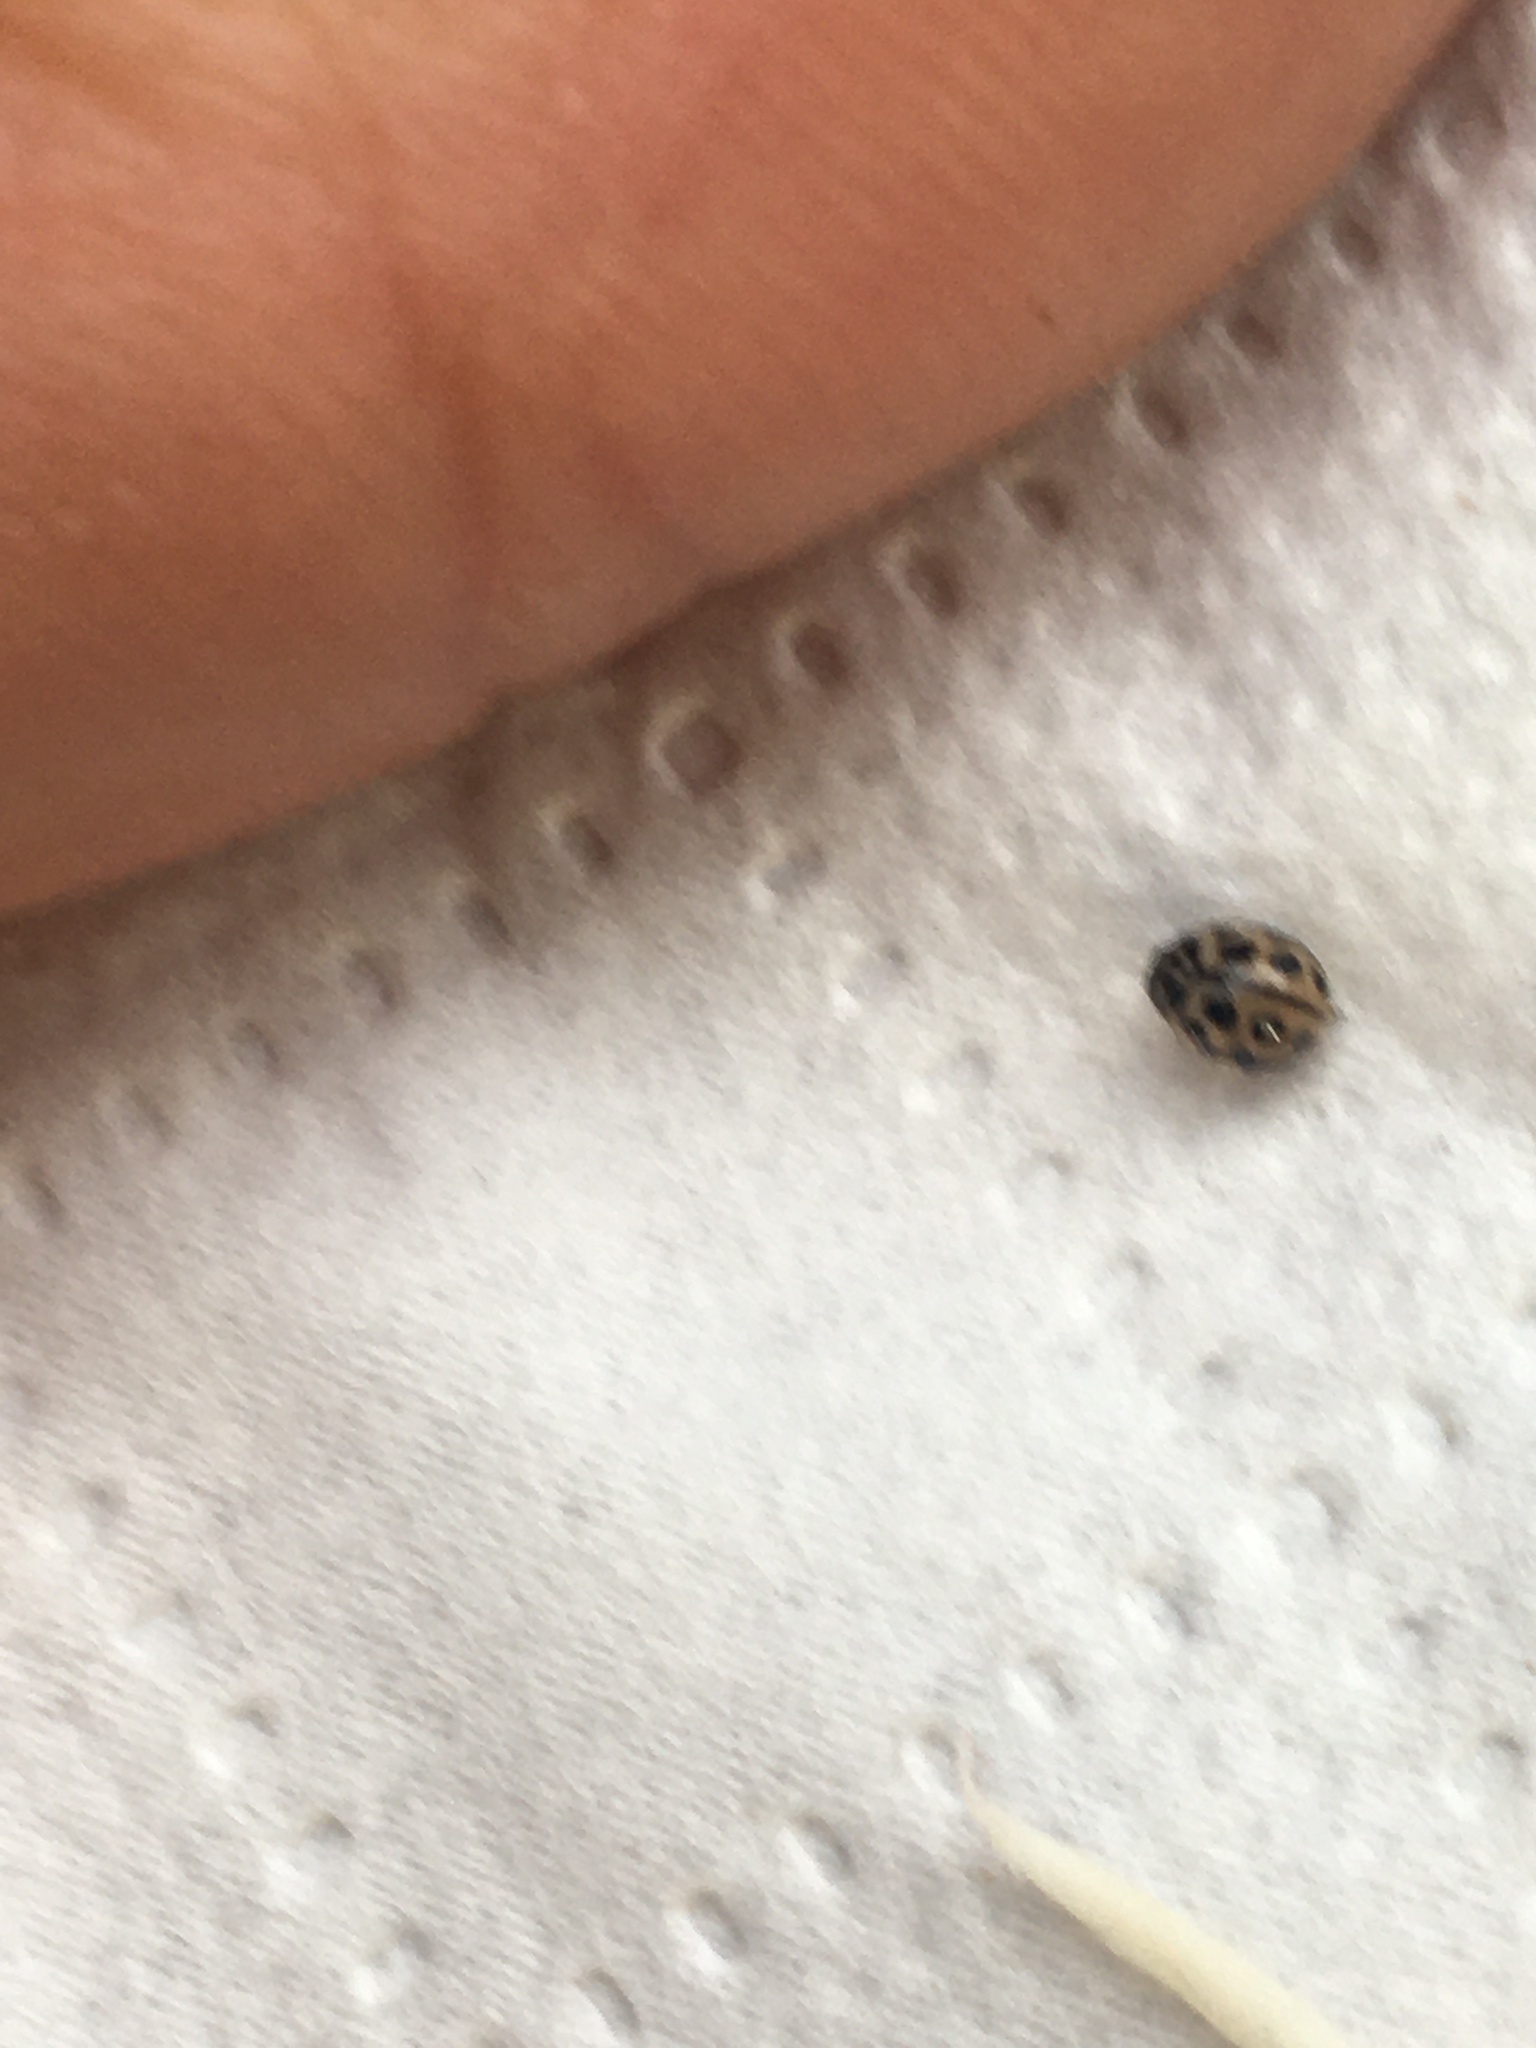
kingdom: Animalia
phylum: Arthropoda
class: Insecta
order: Coleoptera
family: Coccinellidae
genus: Tytthaspis
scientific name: Tytthaspis sedecimpunctata
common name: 16-spot ladybird
